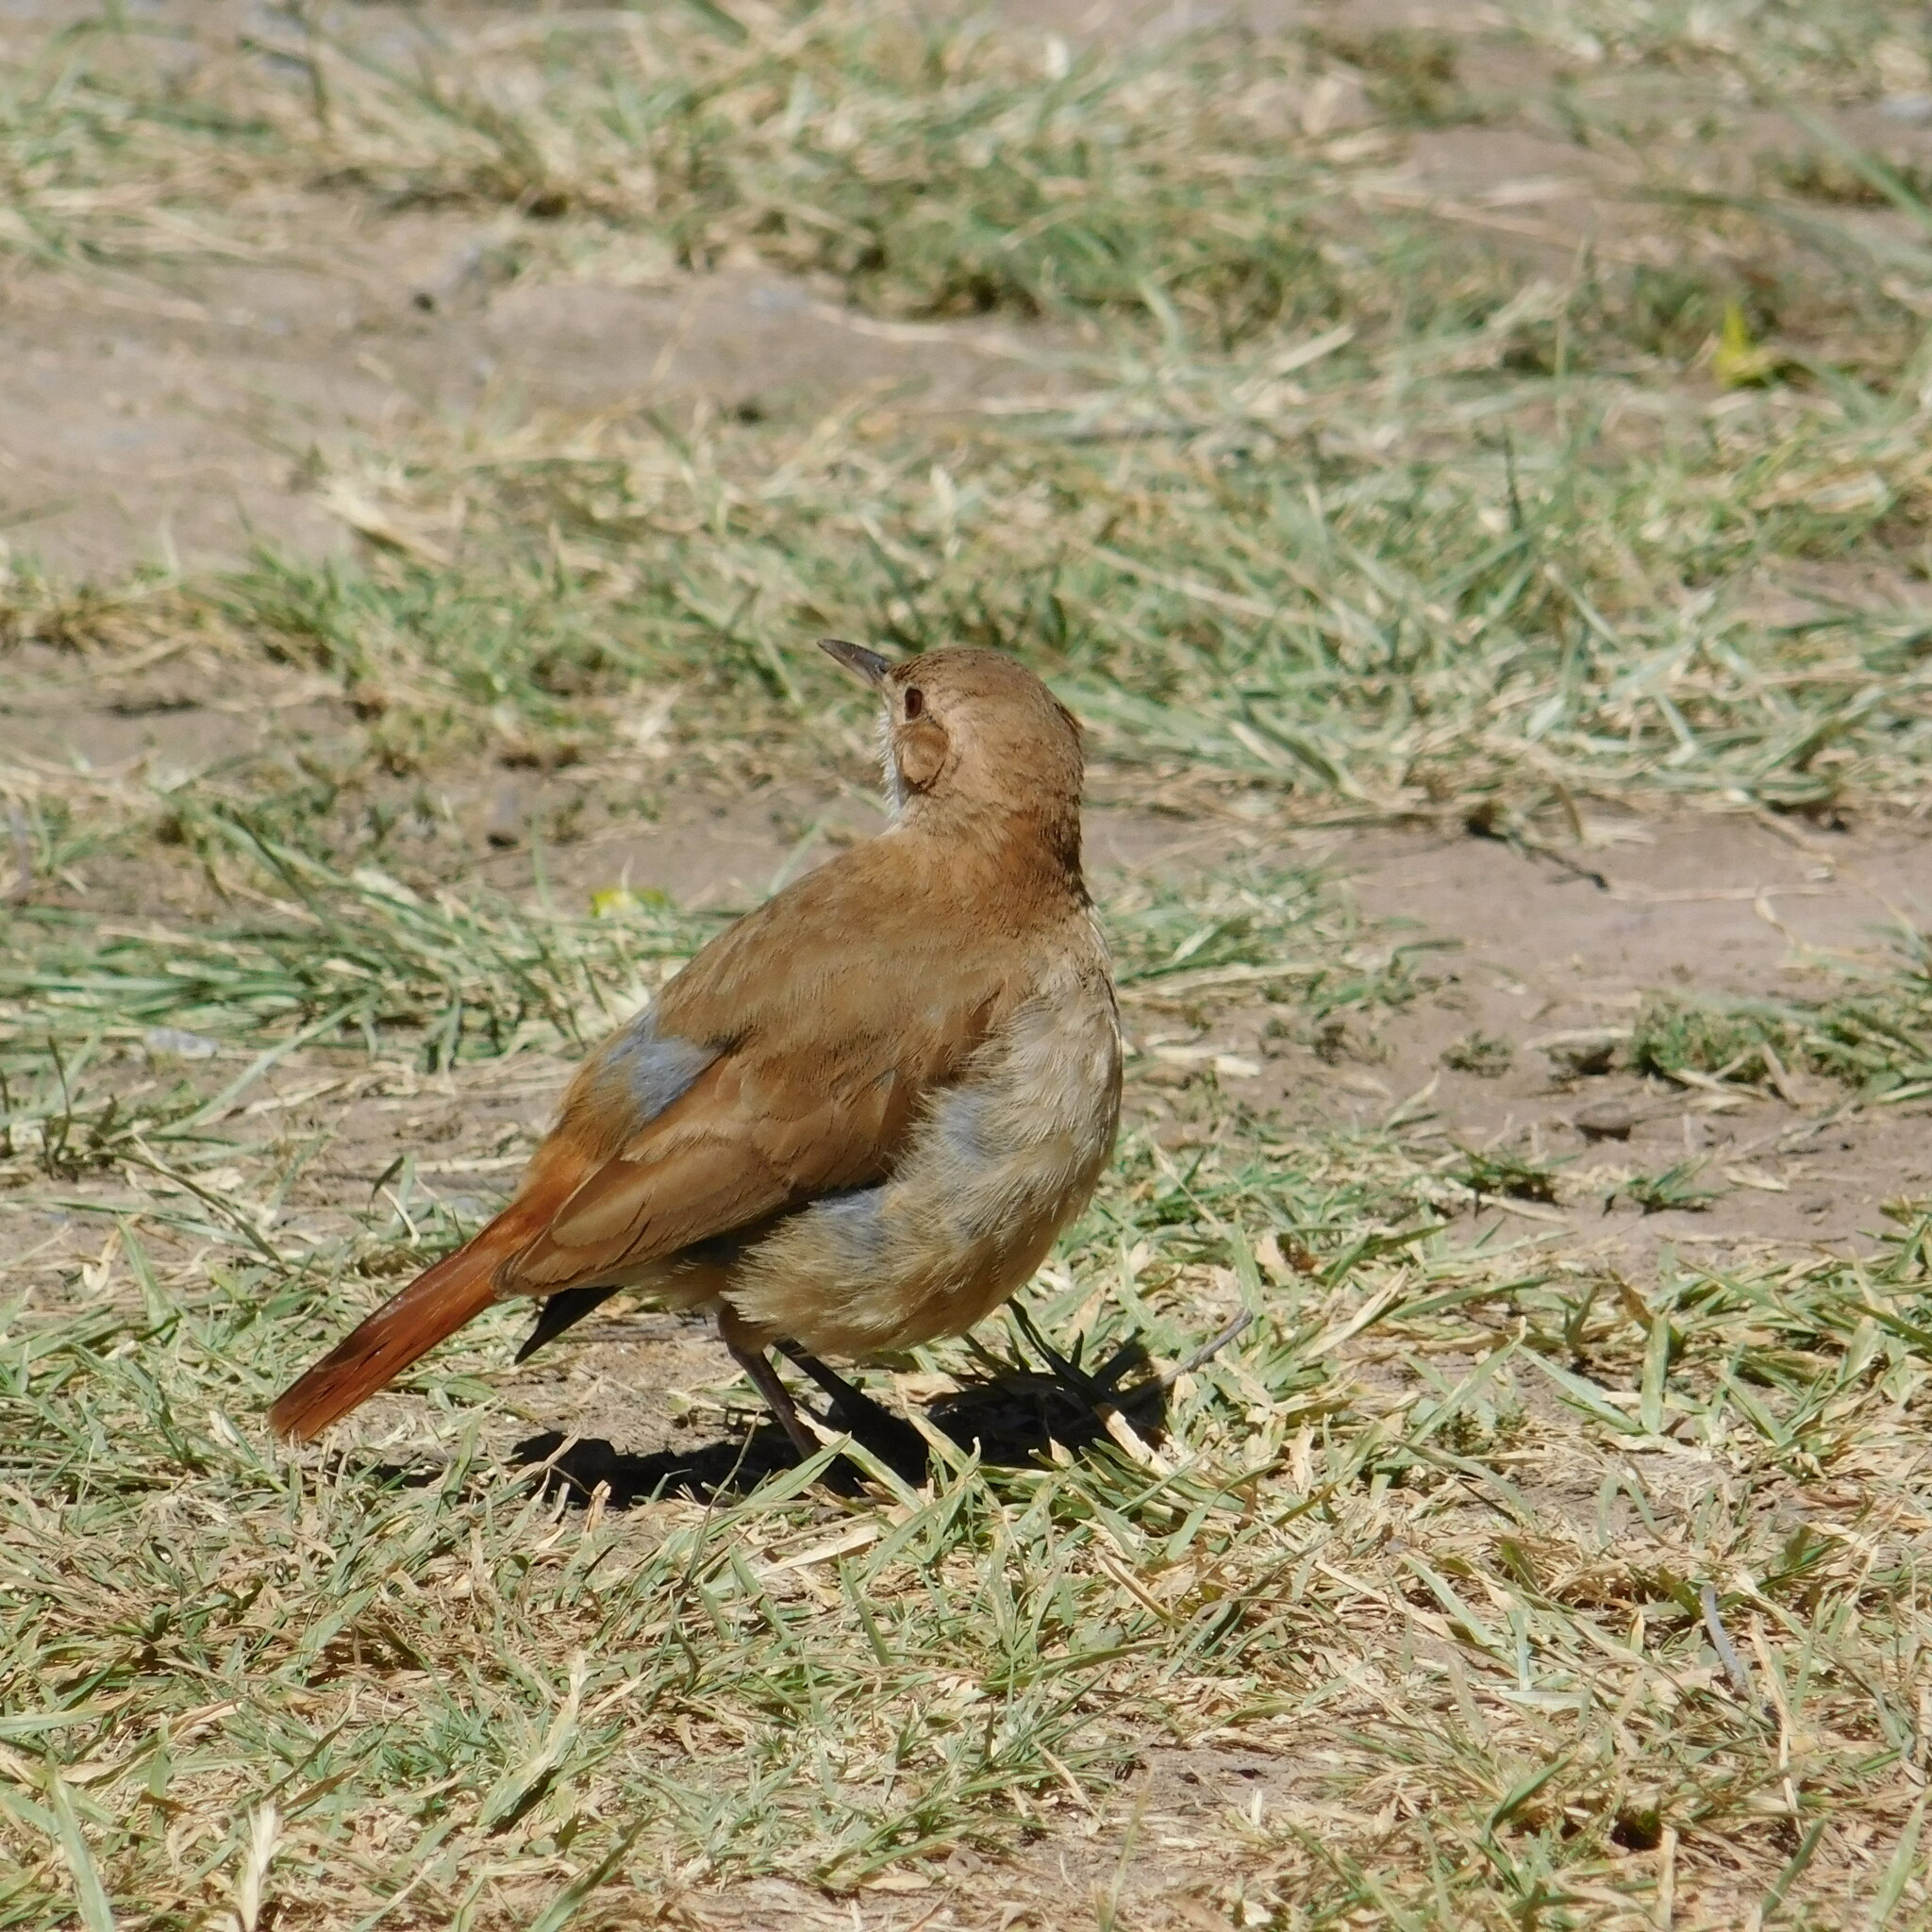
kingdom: Animalia
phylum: Chordata
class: Aves
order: Passeriformes
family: Furnariidae
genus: Furnarius
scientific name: Furnarius rufus
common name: Rufous hornero
